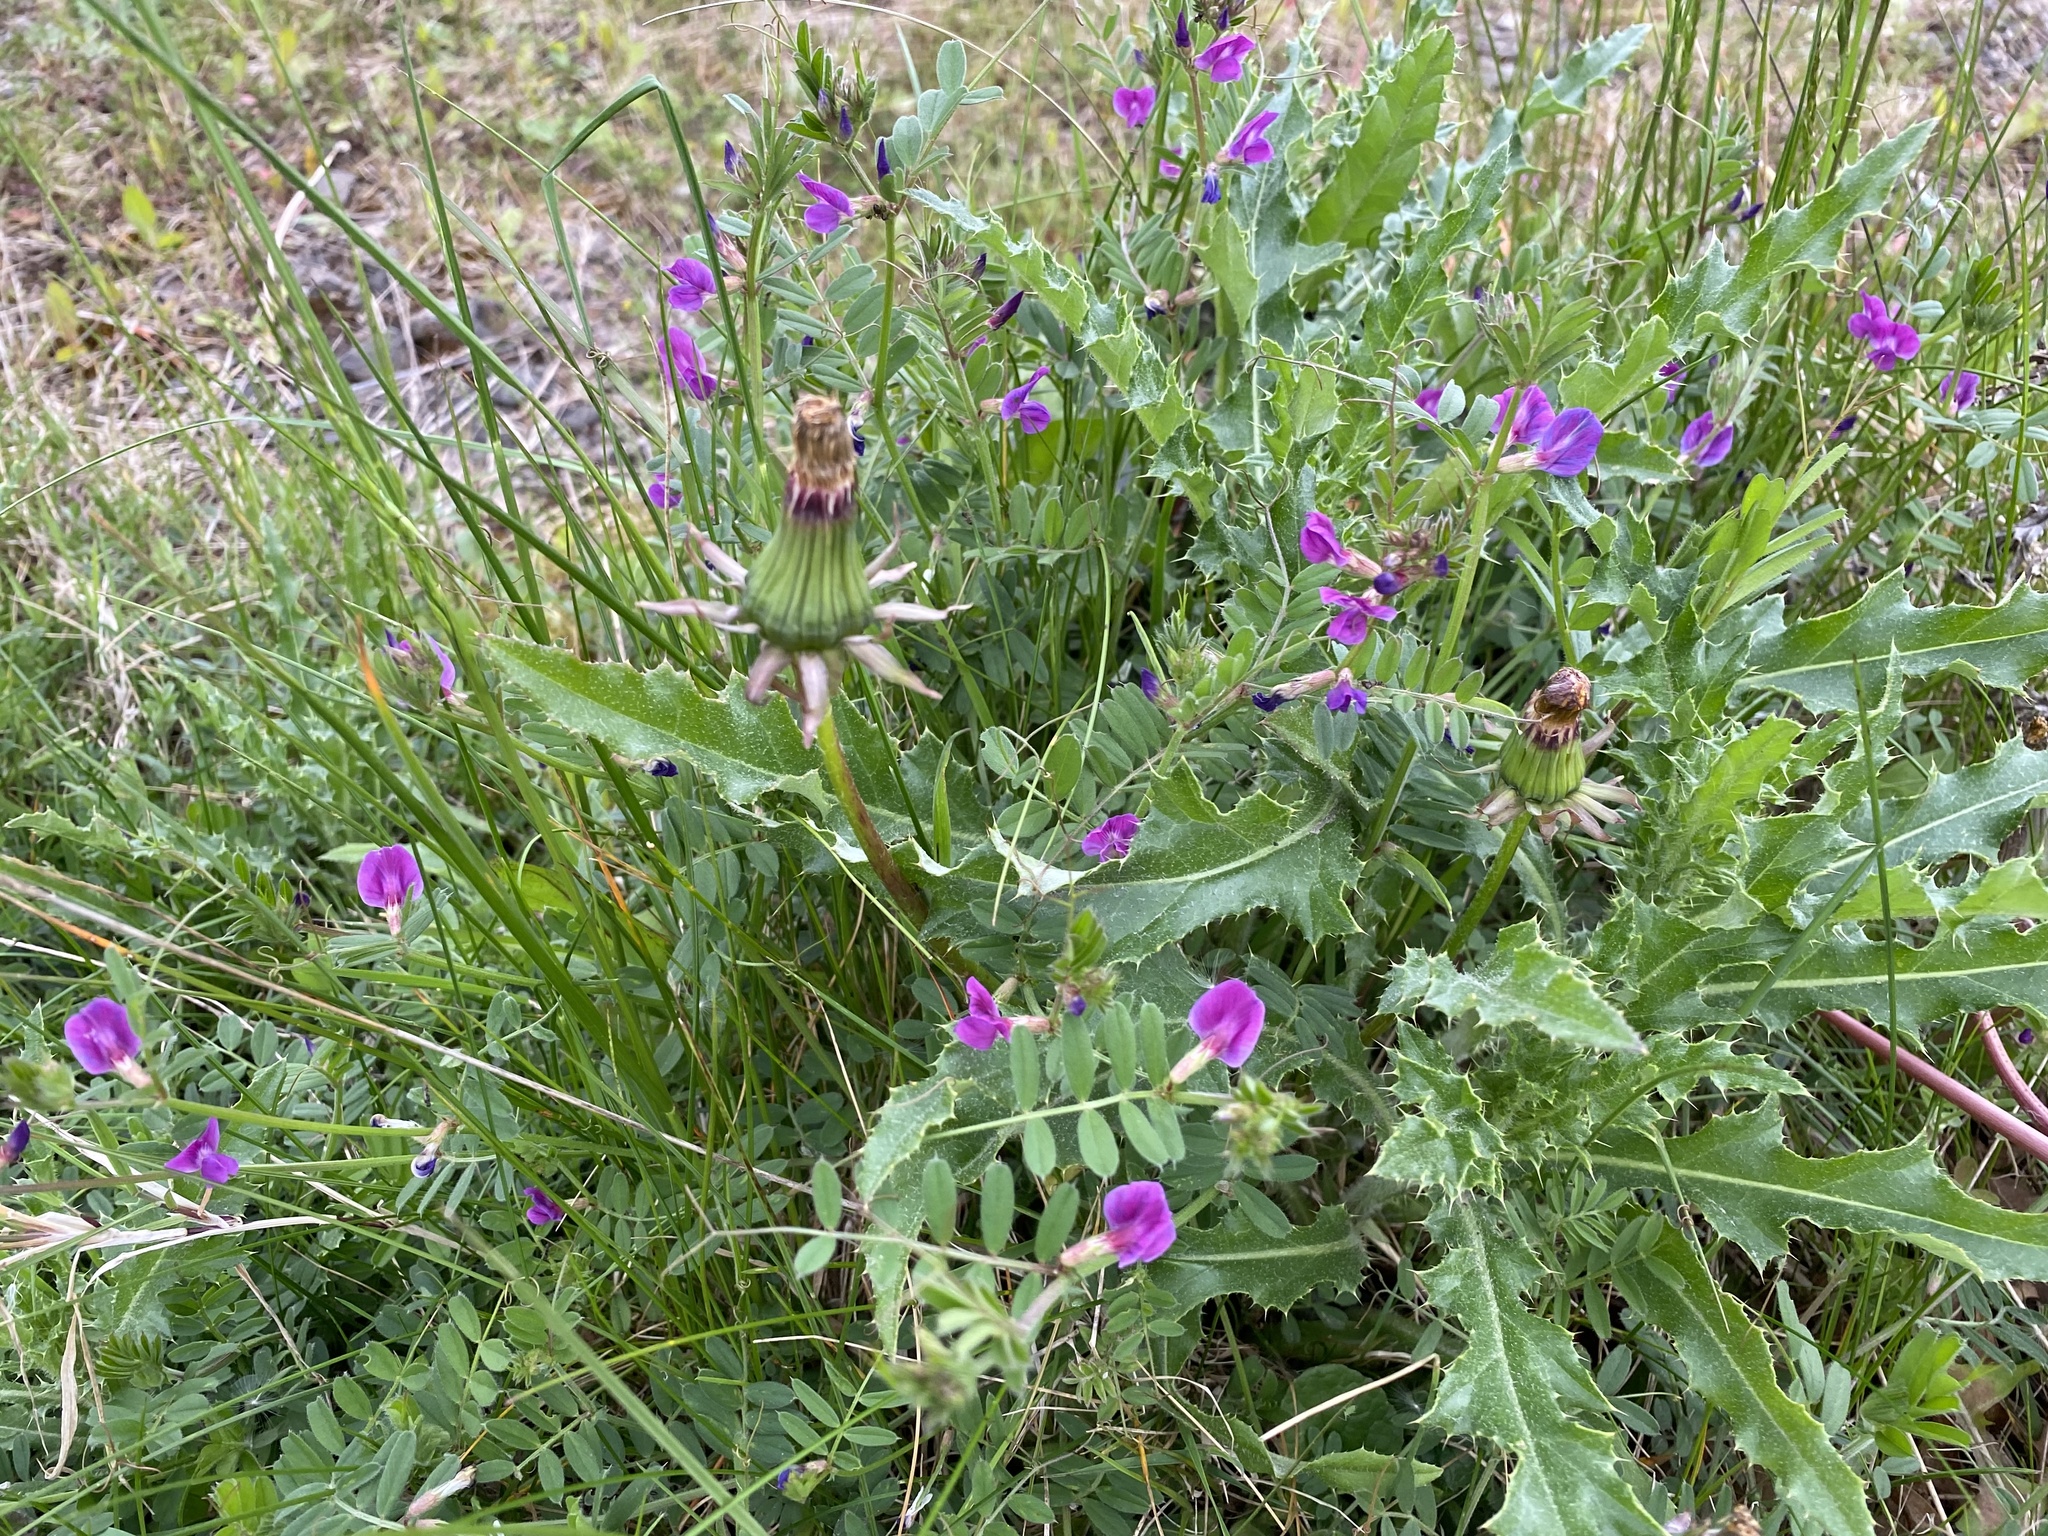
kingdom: Plantae
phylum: Tracheophyta
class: Magnoliopsida
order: Fabales
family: Fabaceae
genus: Vicia
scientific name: Vicia sativa
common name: Garden vetch
